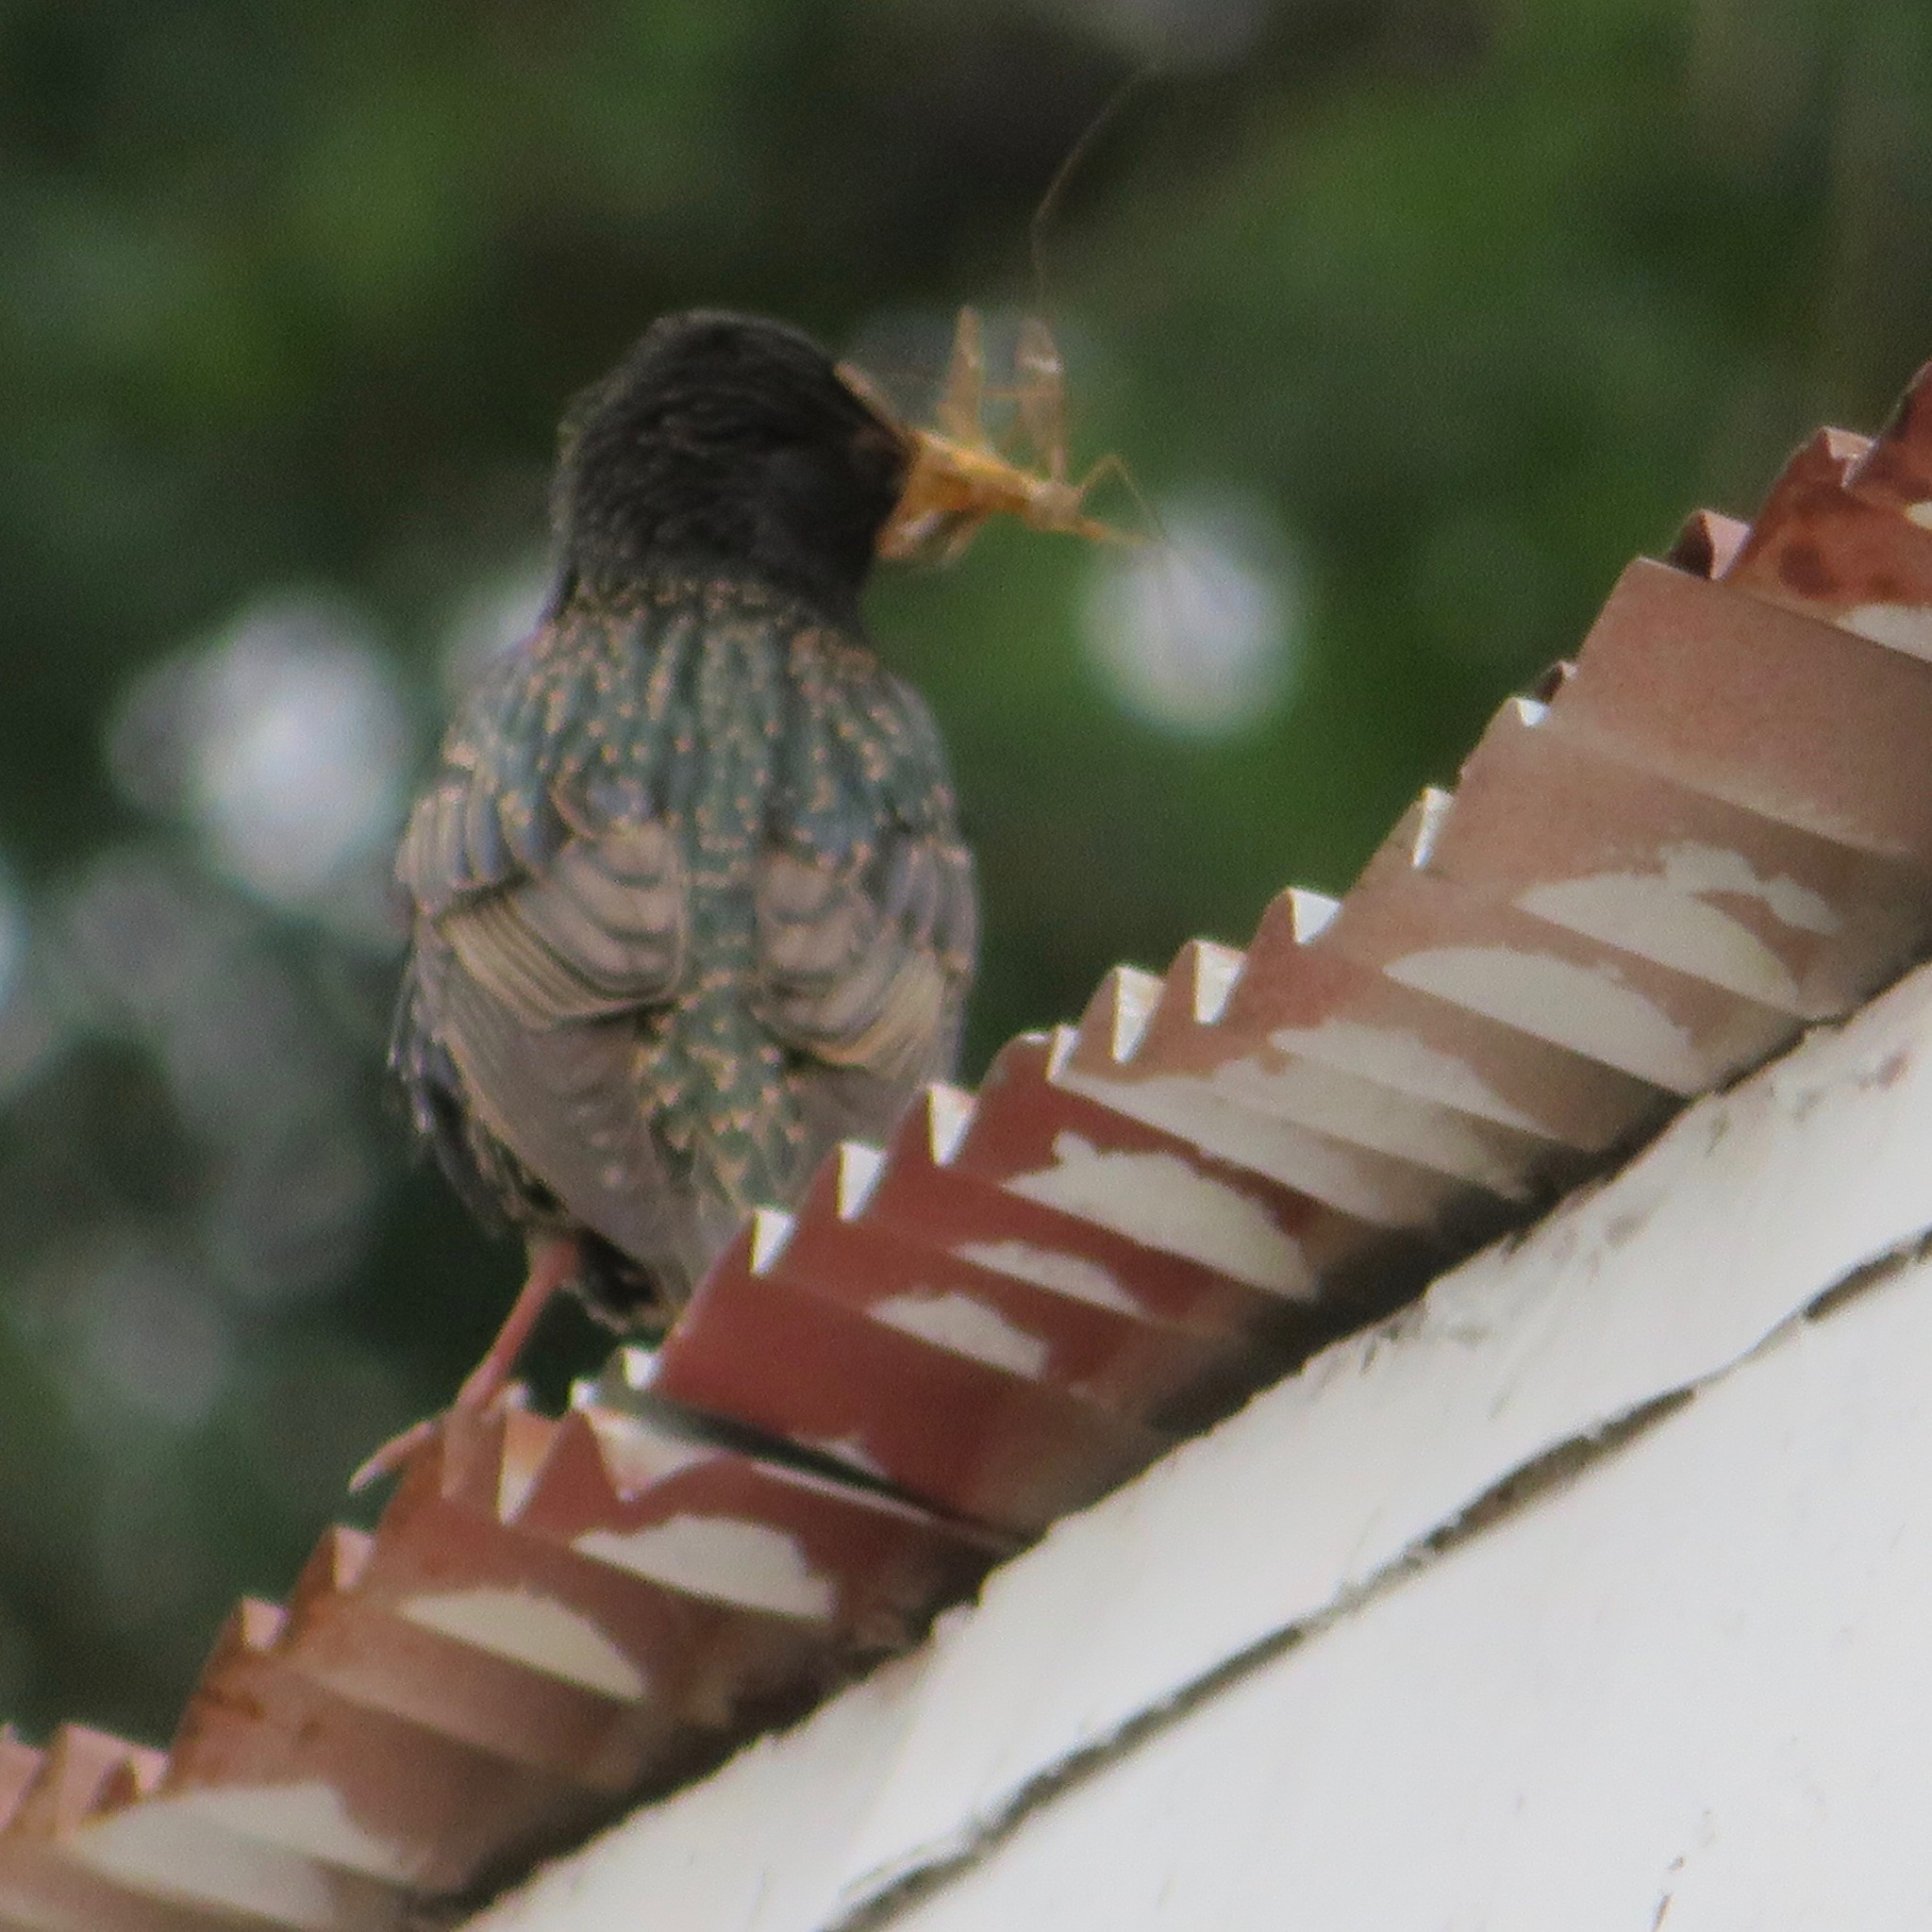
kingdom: Animalia
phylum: Chordata
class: Aves
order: Passeriformes
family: Sturnidae
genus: Sturnus
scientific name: Sturnus vulgaris
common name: Common starling
